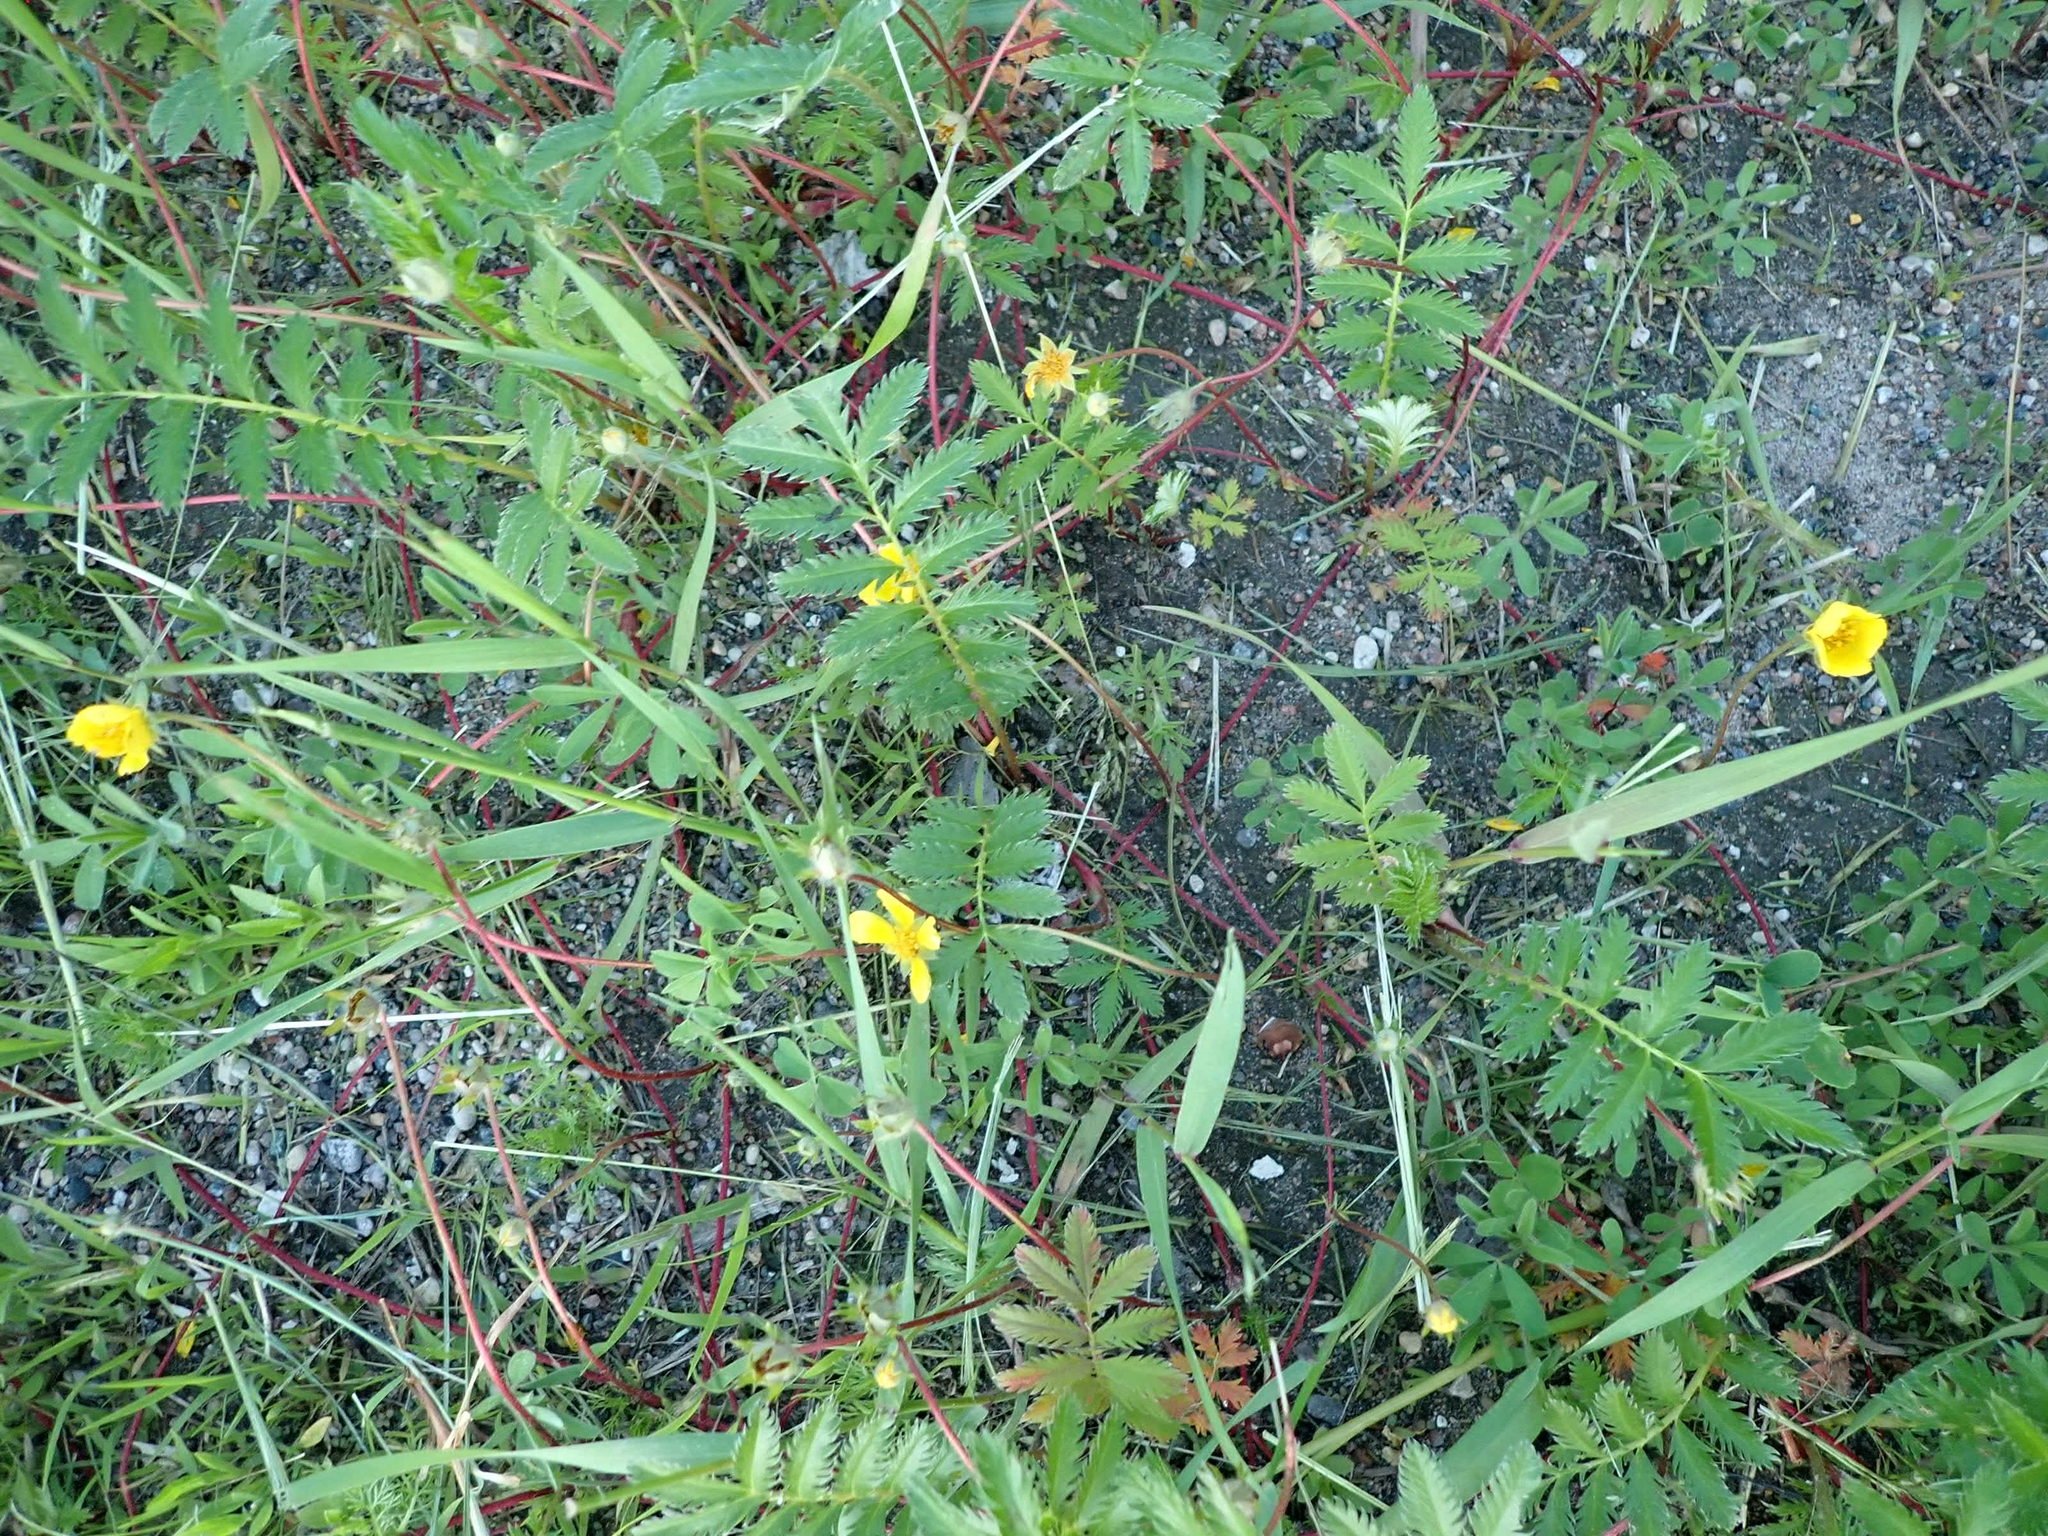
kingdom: Plantae
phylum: Tracheophyta
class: Magnoliopsida
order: Rosales
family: Rosaceae
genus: Argentina
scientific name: Argentina anserina
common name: Common silverweed
